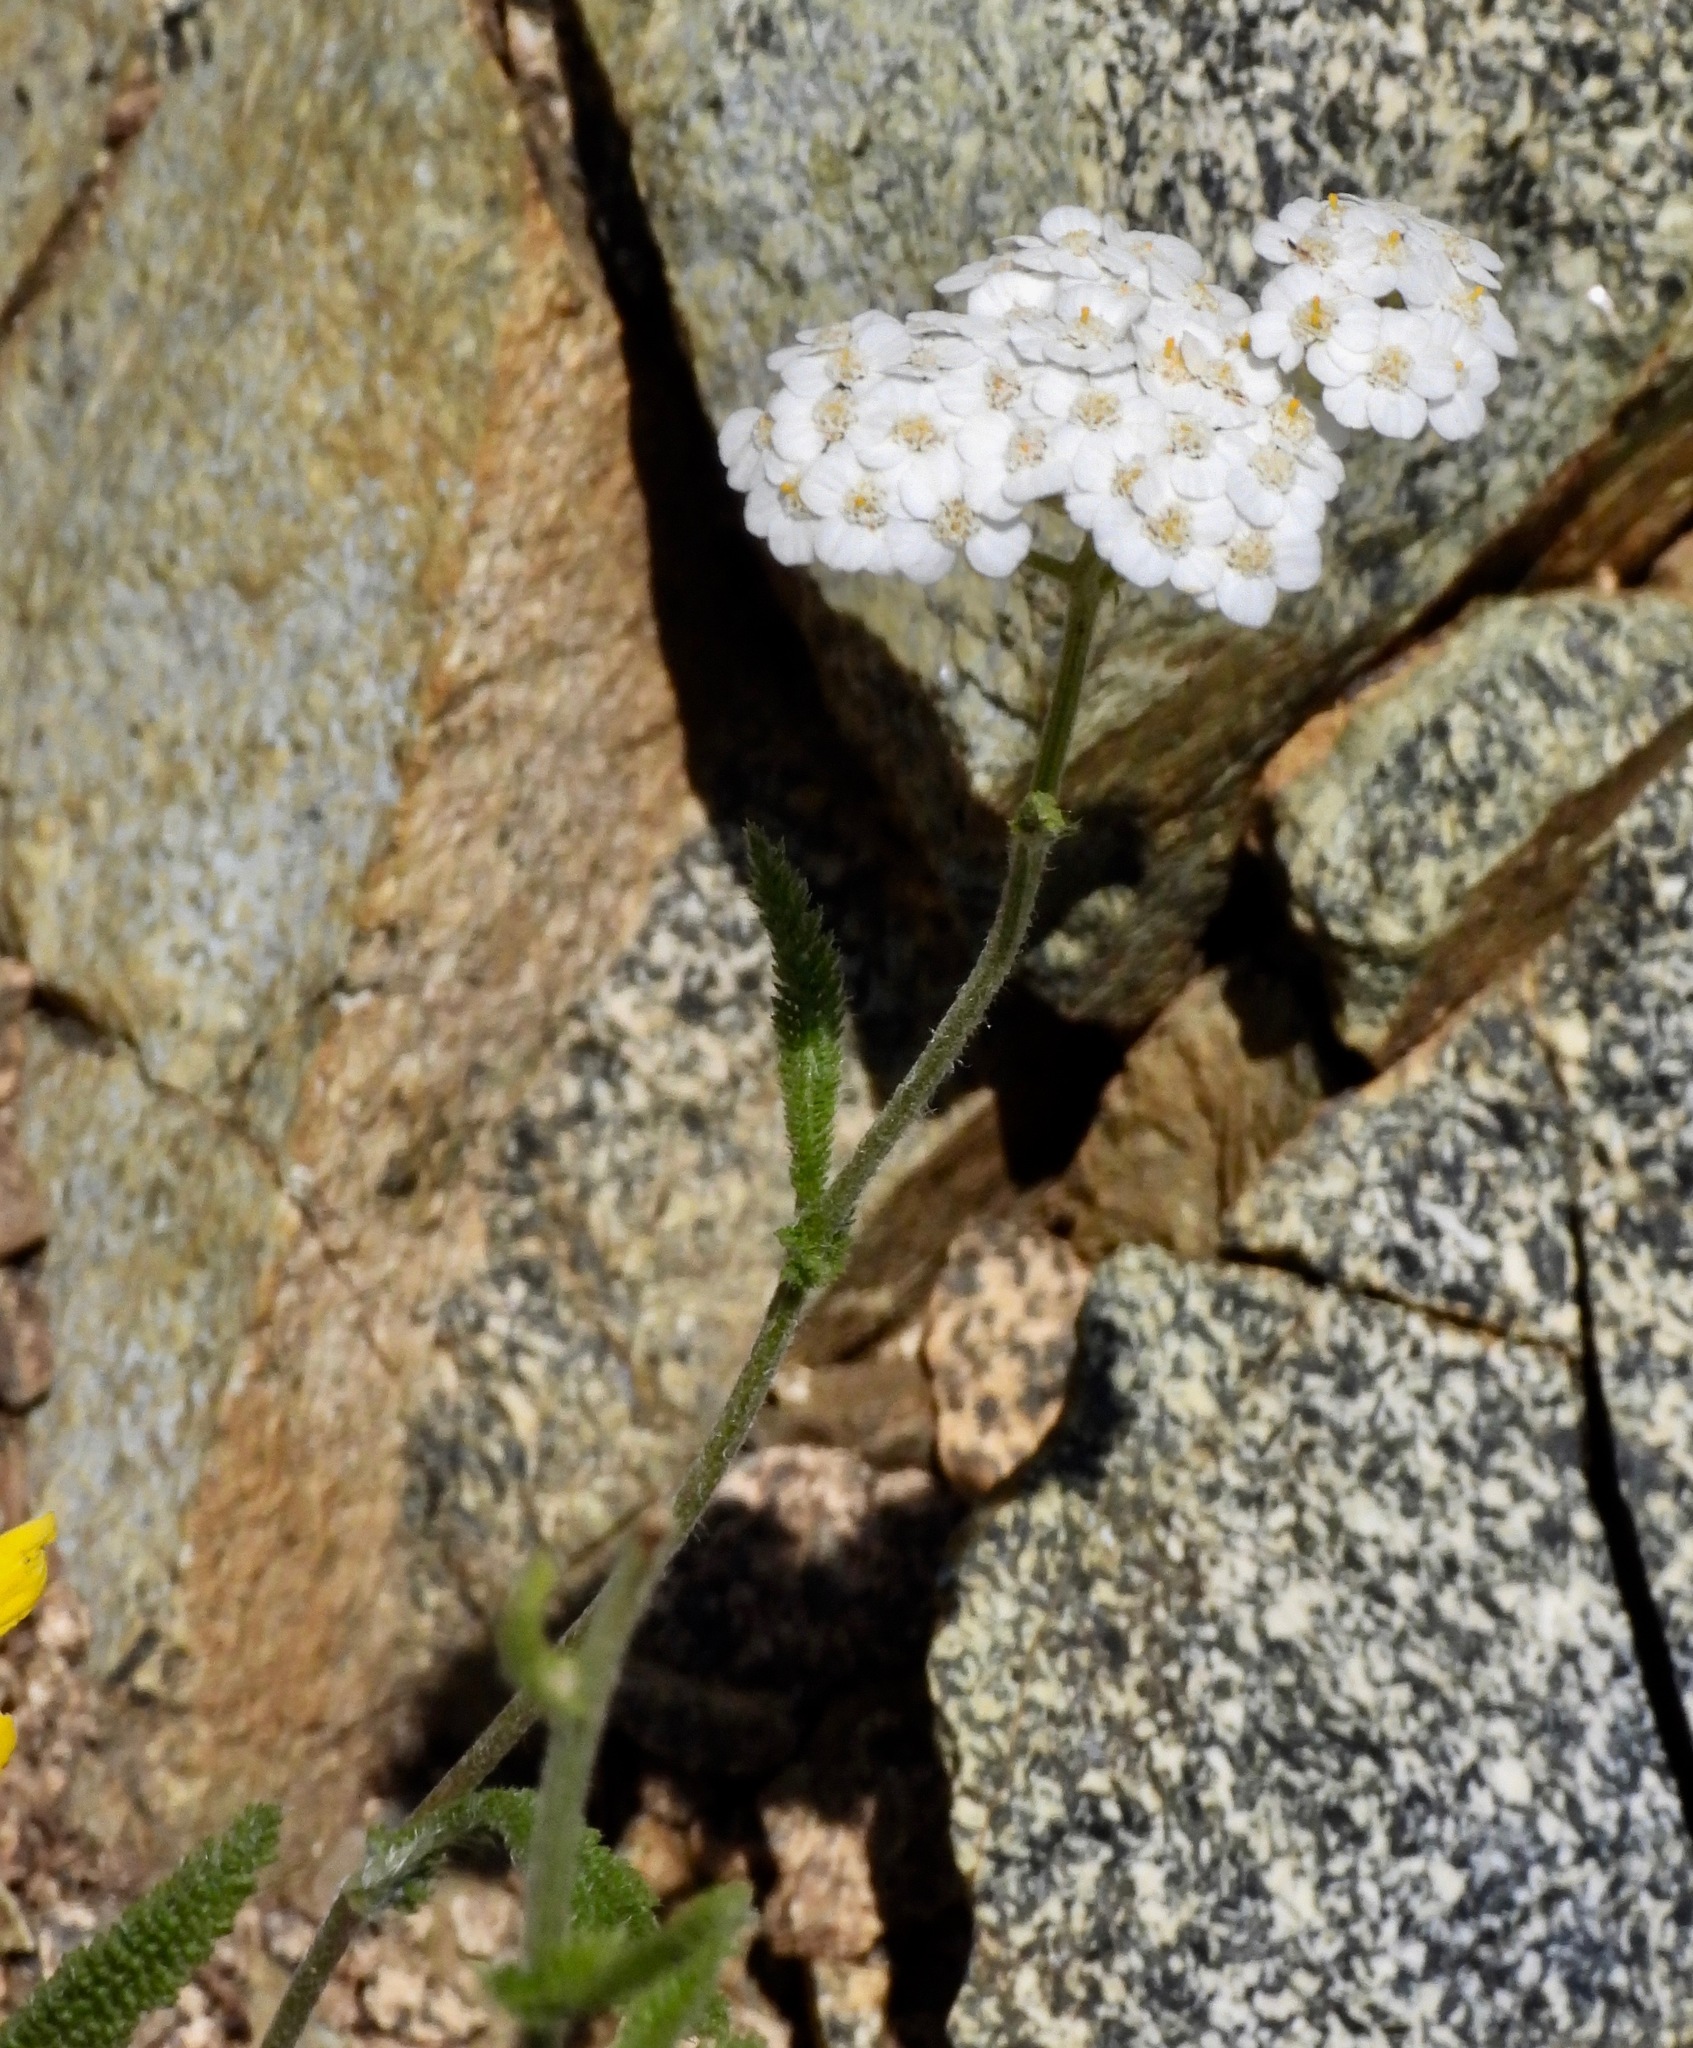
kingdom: Plantae
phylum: Tracheophyta
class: Magnoliopsida
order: Asterales
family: Asteraceae
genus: Achillea
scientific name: Achillea millefolium
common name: Yarrow
